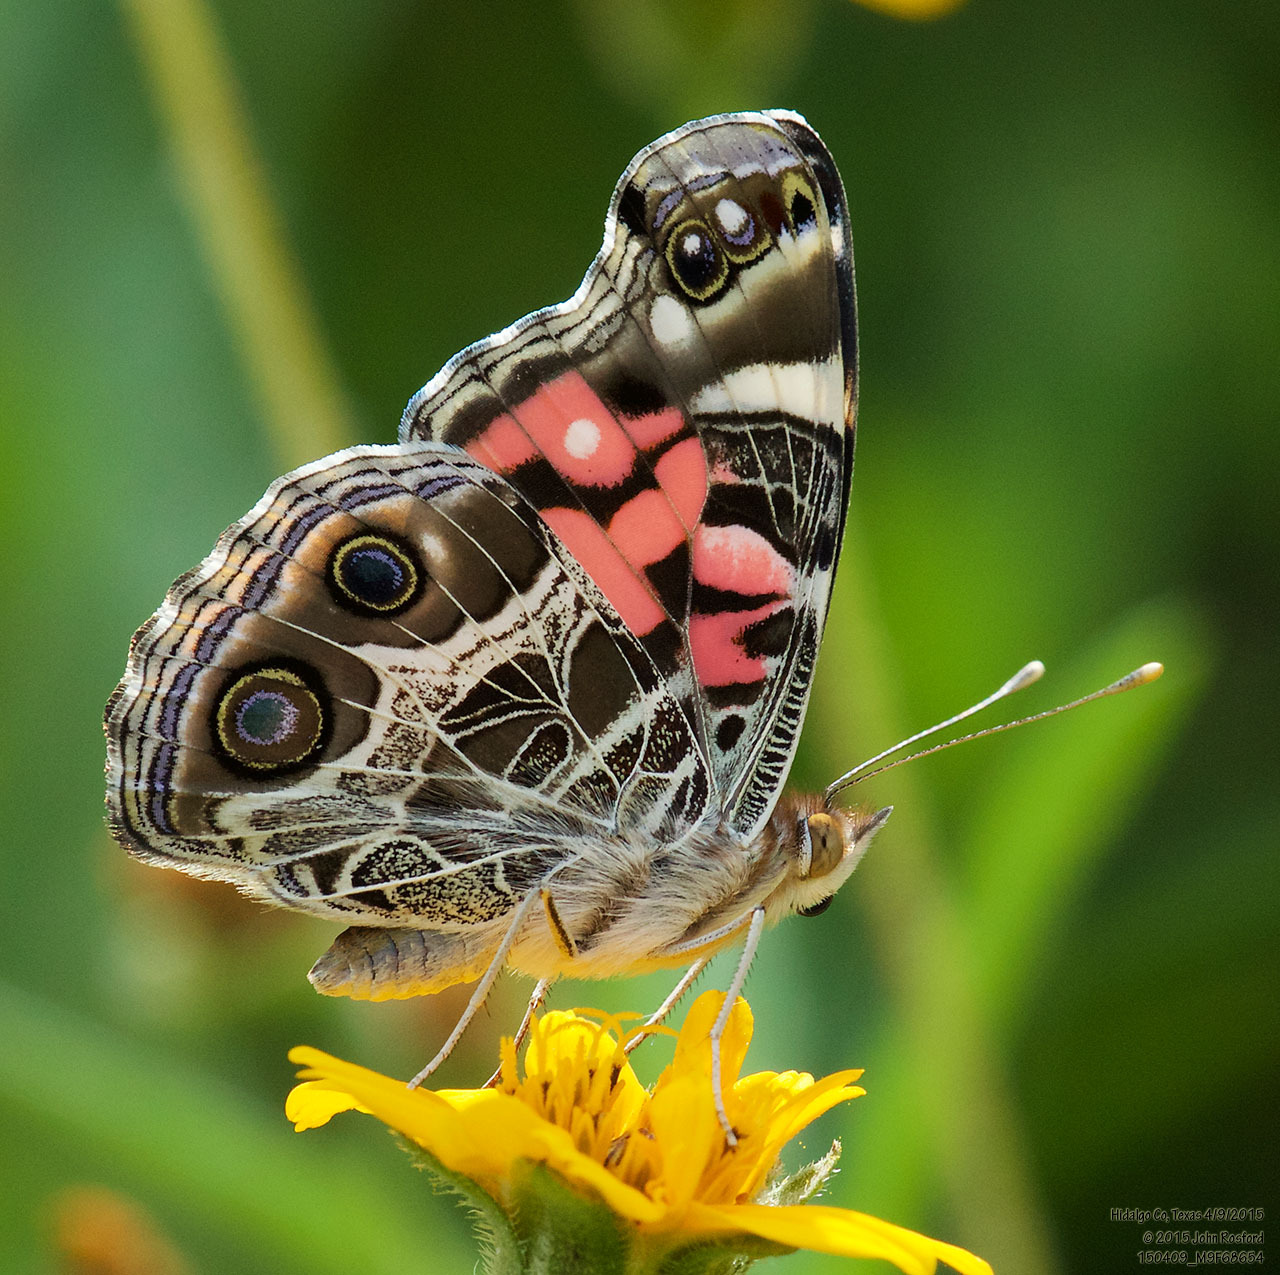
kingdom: Animalia
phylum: Arthropoda
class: Insecta
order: Lepidoptera
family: Nymphalidae
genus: Vanessa
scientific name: Vanessa virginiensis
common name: American lady
